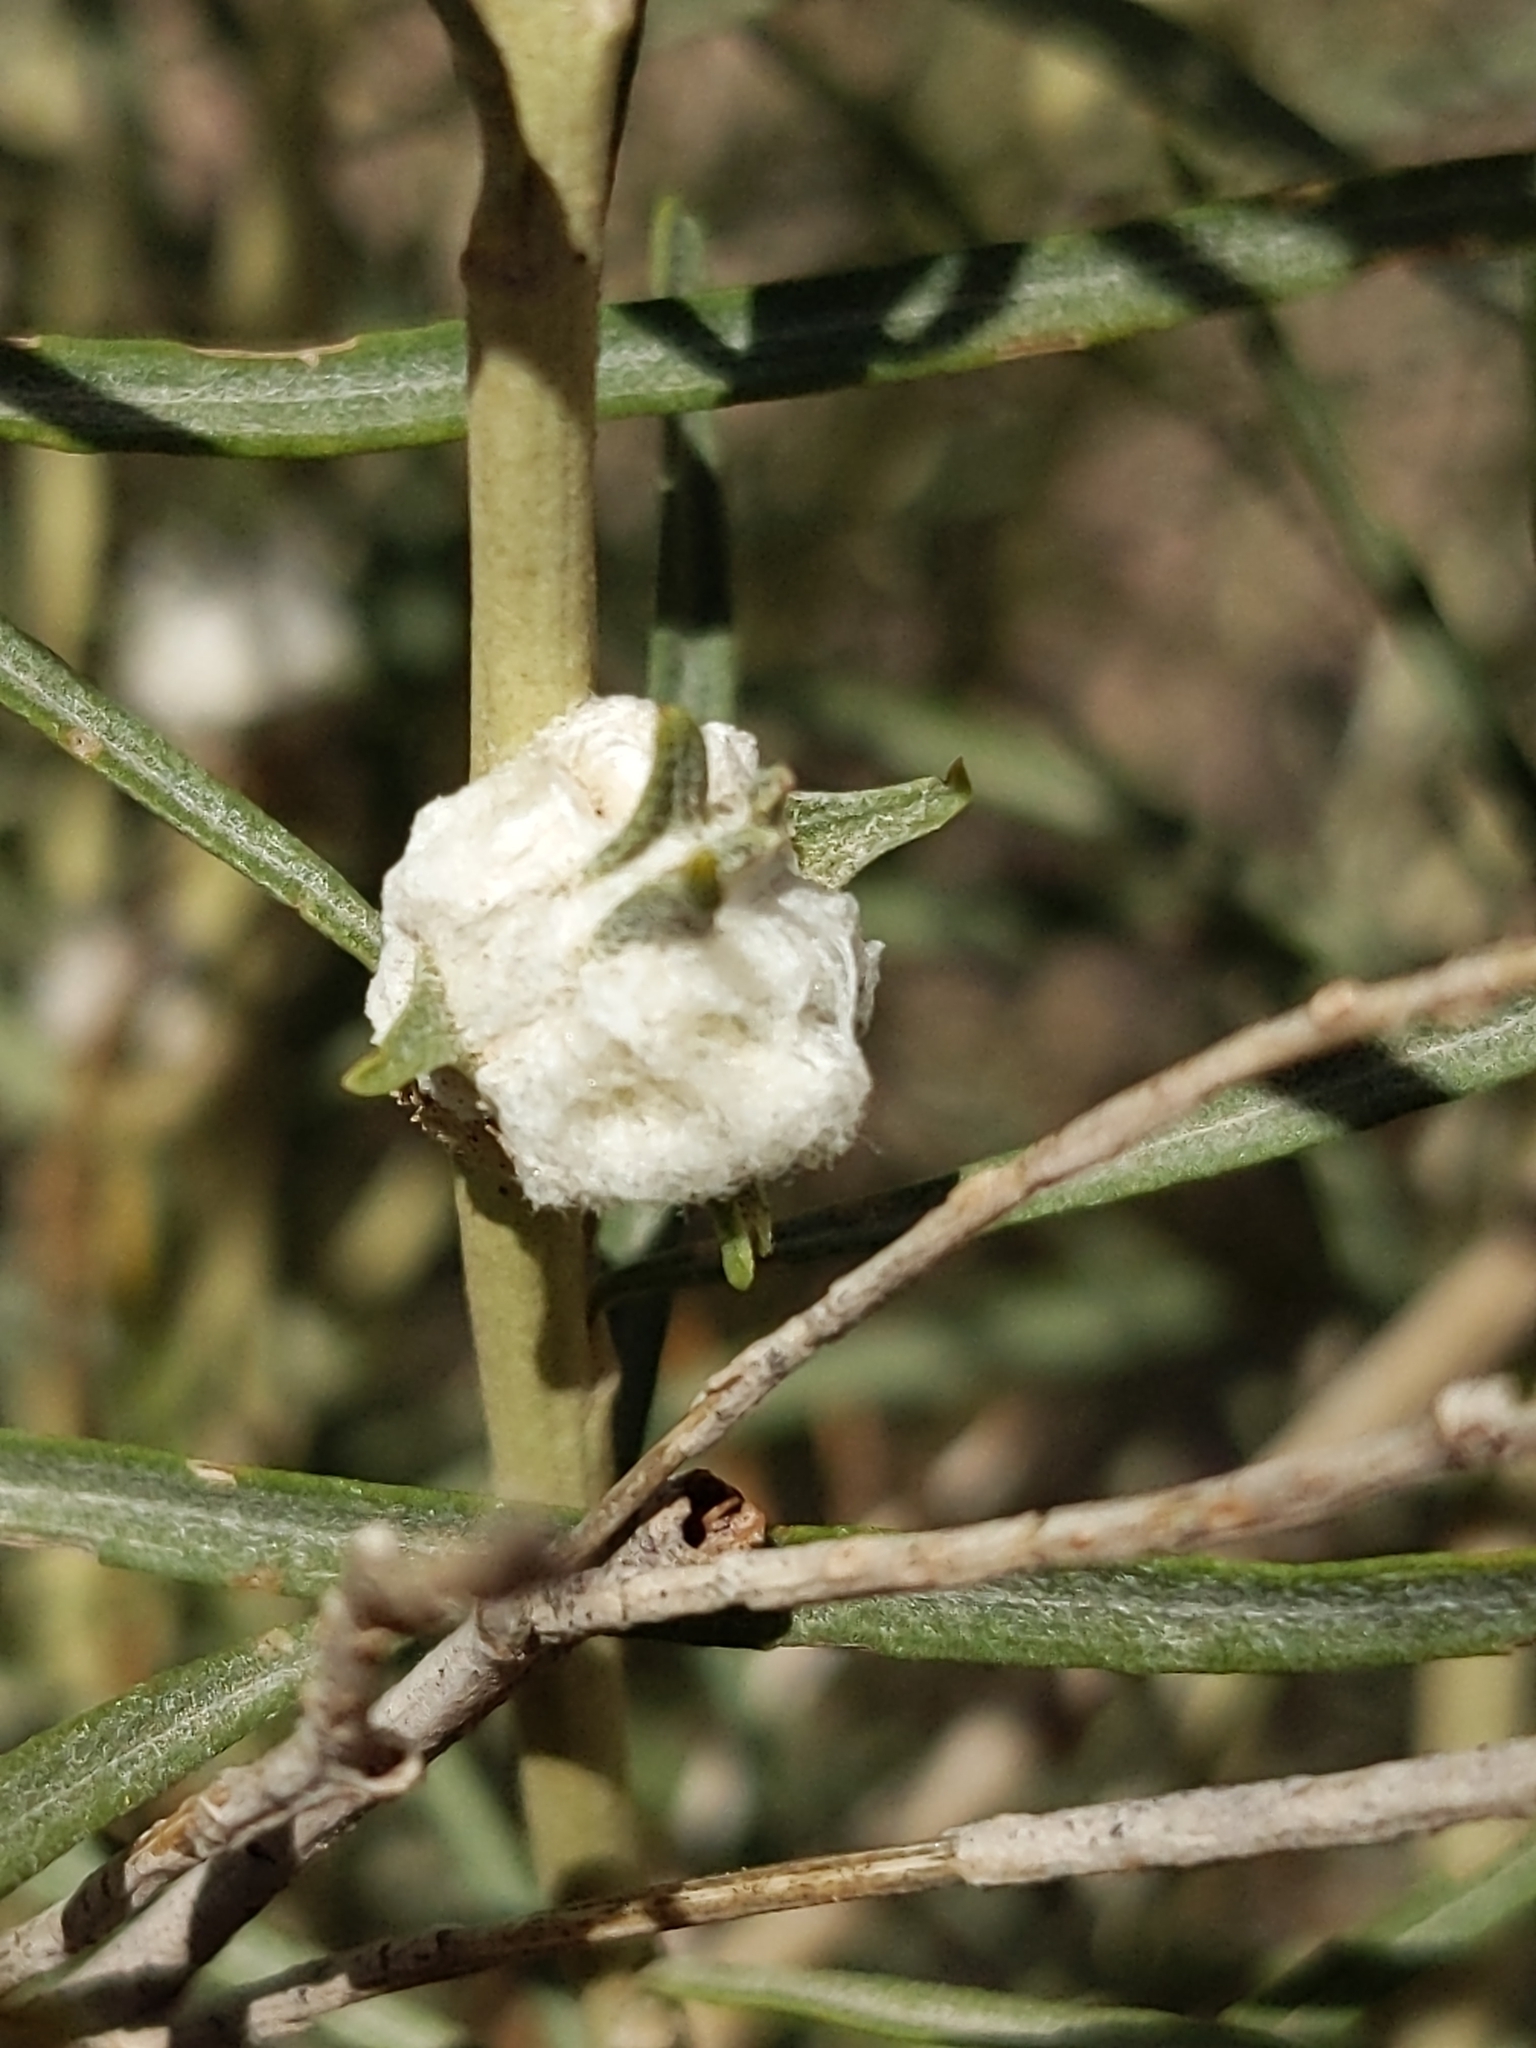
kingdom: Animalia
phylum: Arthropoda
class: Insecta
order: Diptera
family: Tephritidae
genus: Aciurina
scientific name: Aciurina bigeloviae
